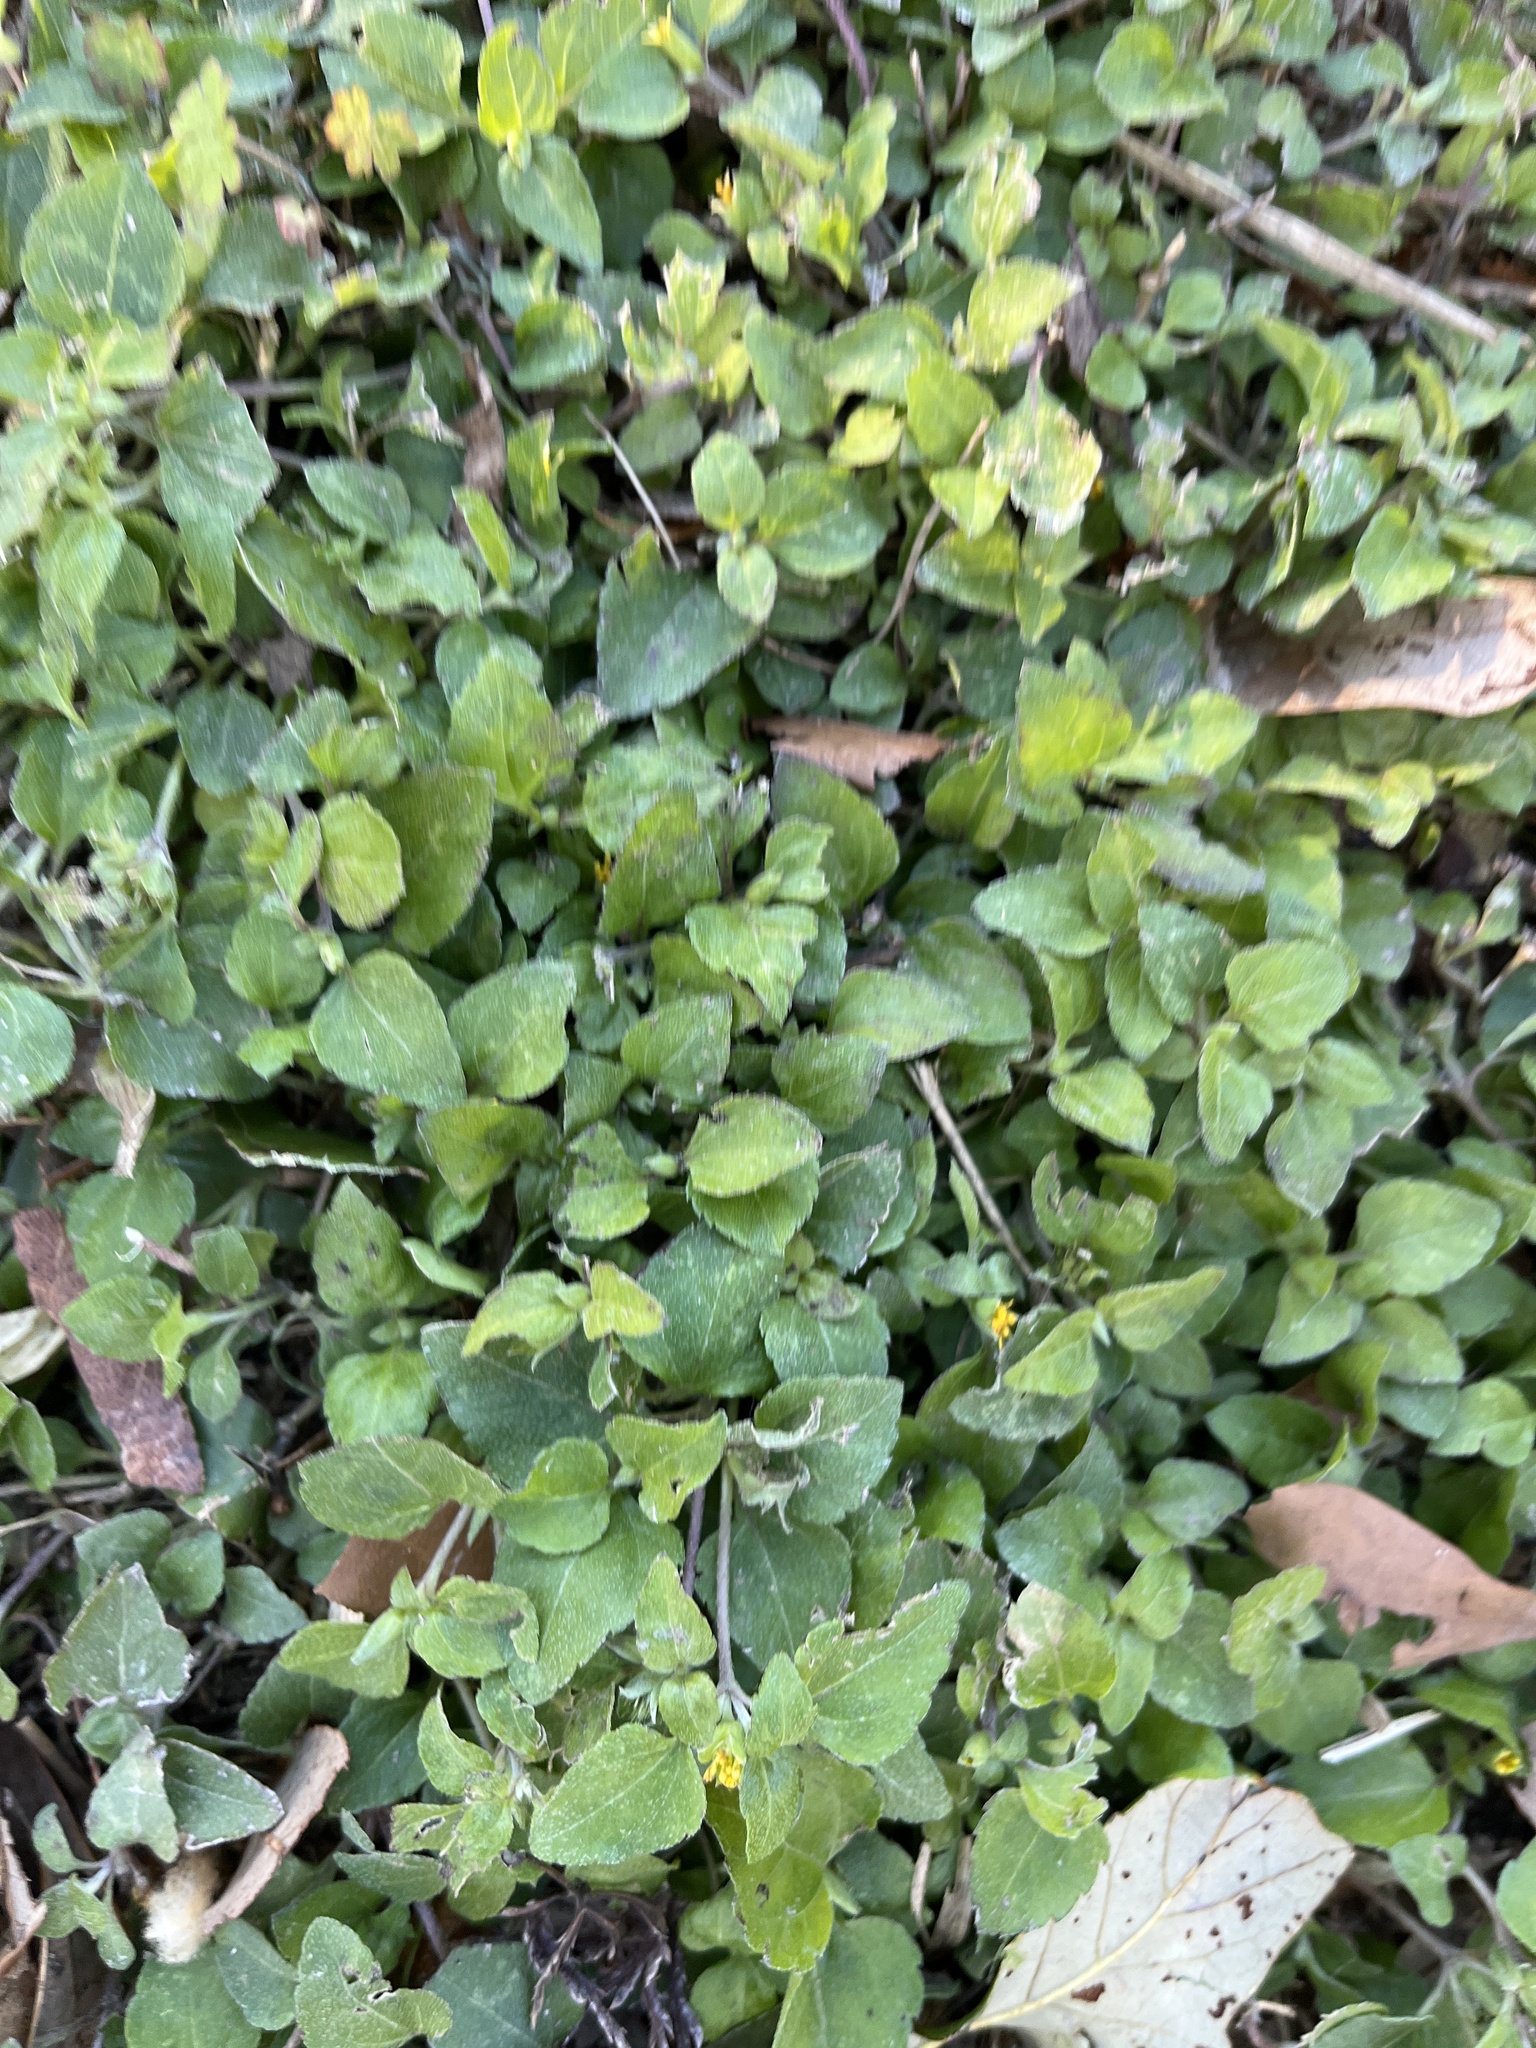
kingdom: Plantae
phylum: Tracheophyta
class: Magnoliopsida
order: Asterales
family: Asteraceae
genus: Calyptocarpus
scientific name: Calyptocarpus vialis
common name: Straggler daisy
